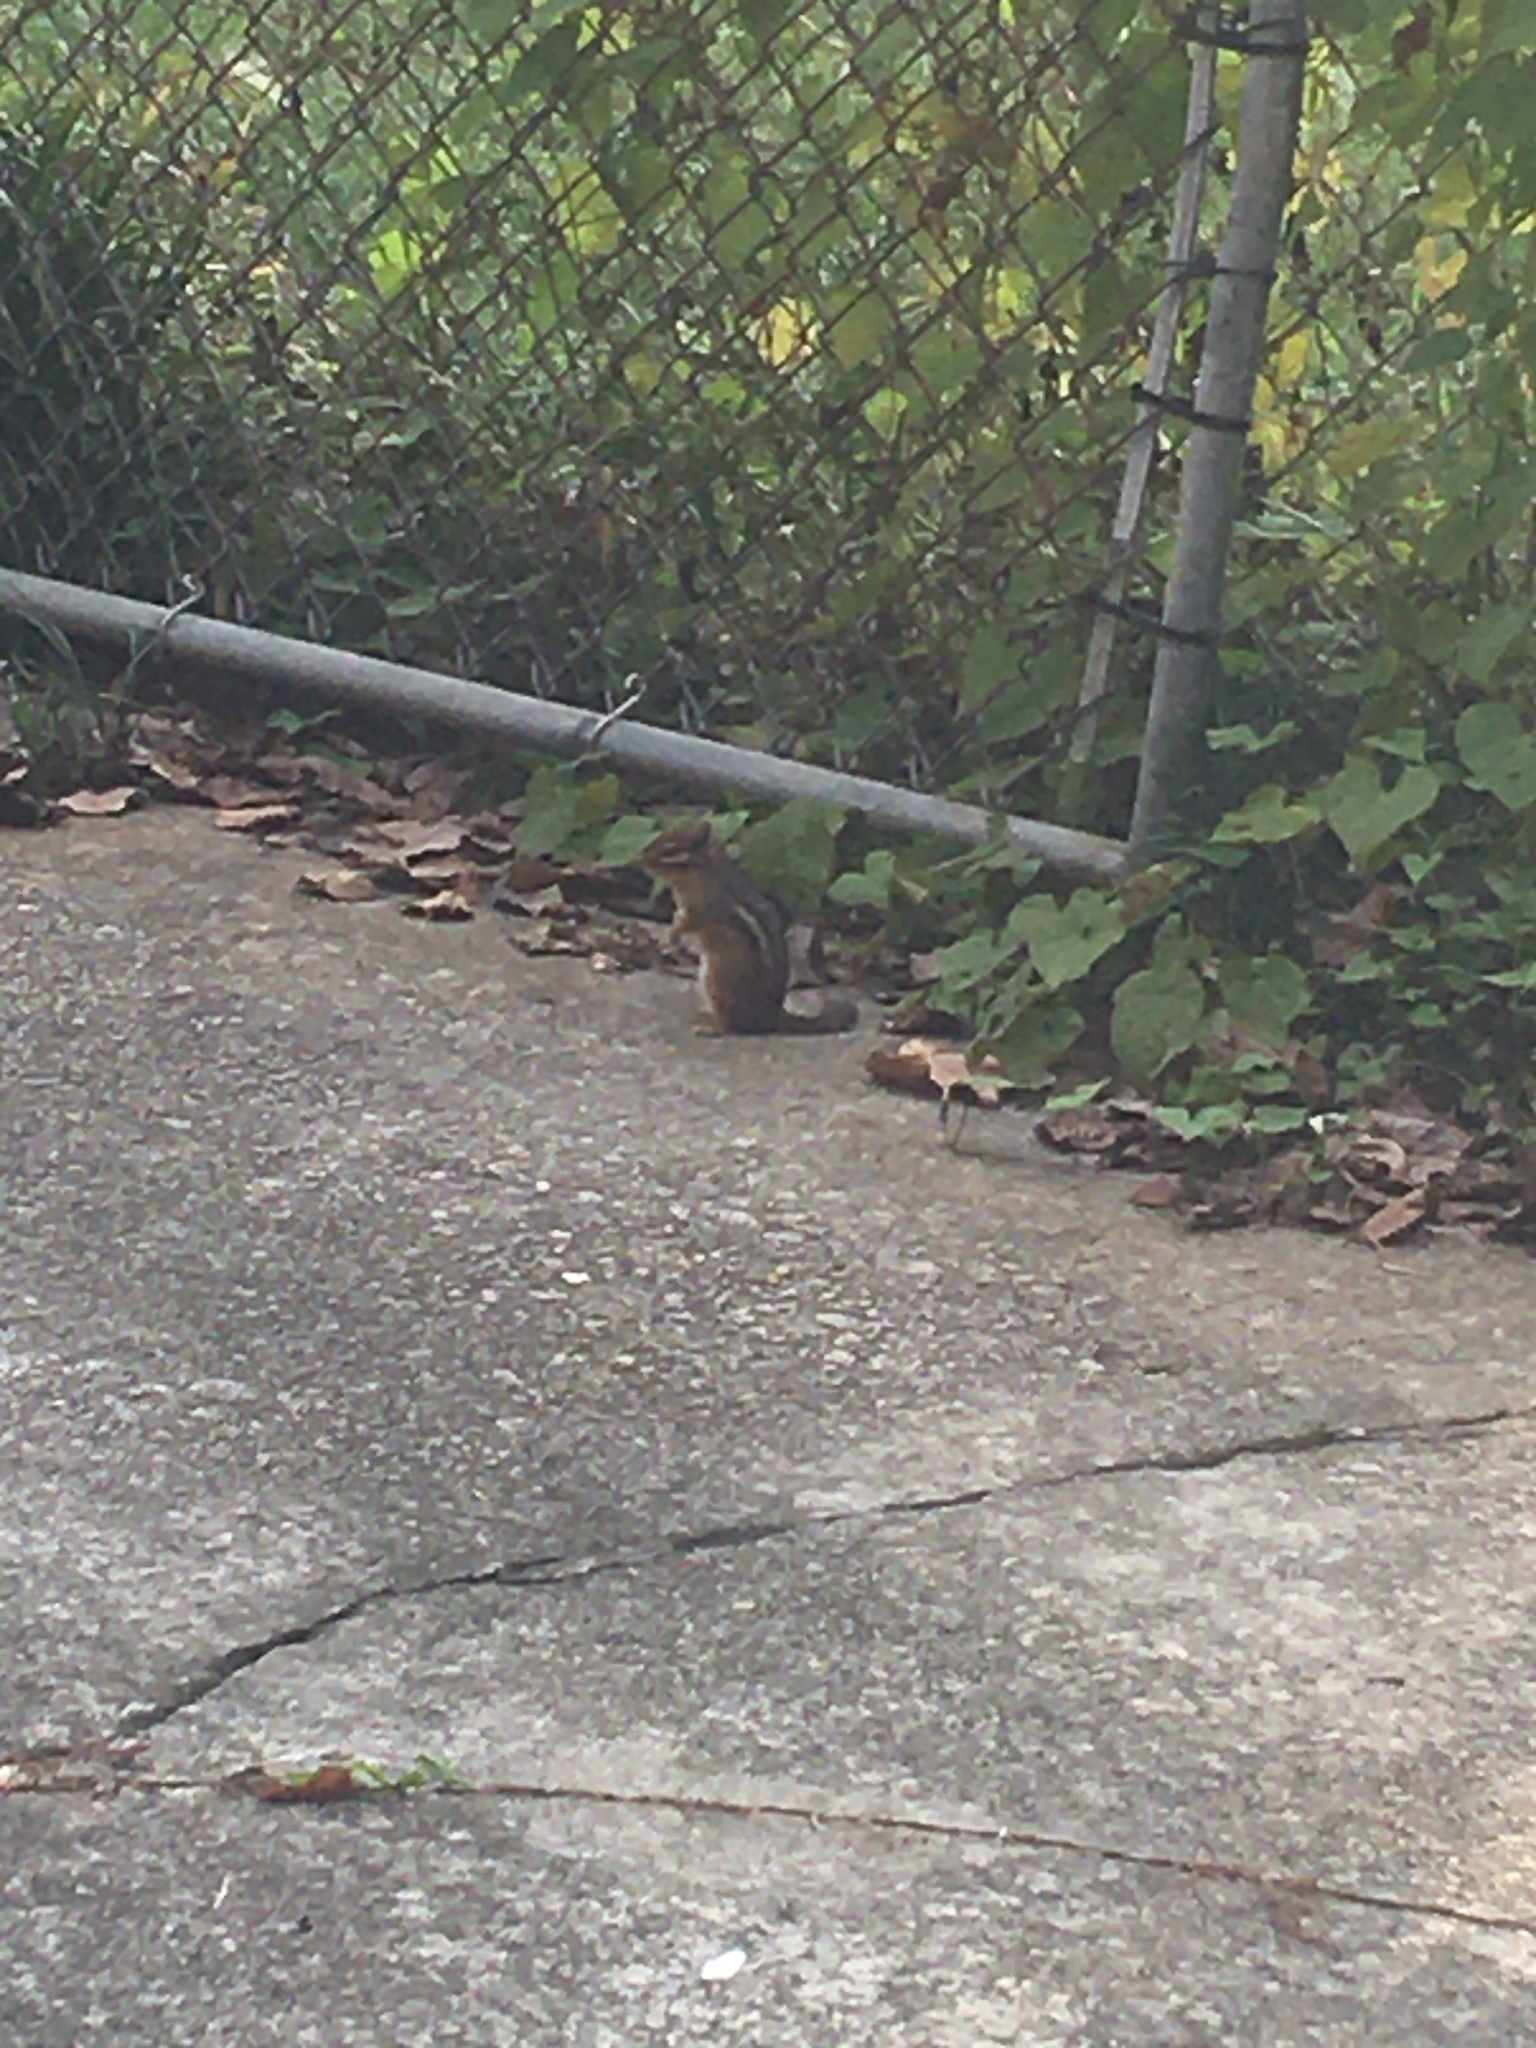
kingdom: Animalia
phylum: Chordata
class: Mammalia
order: Rodentia
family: Sciuridae
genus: Tamias
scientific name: Tamias striatus
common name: Eastern chipmunk
